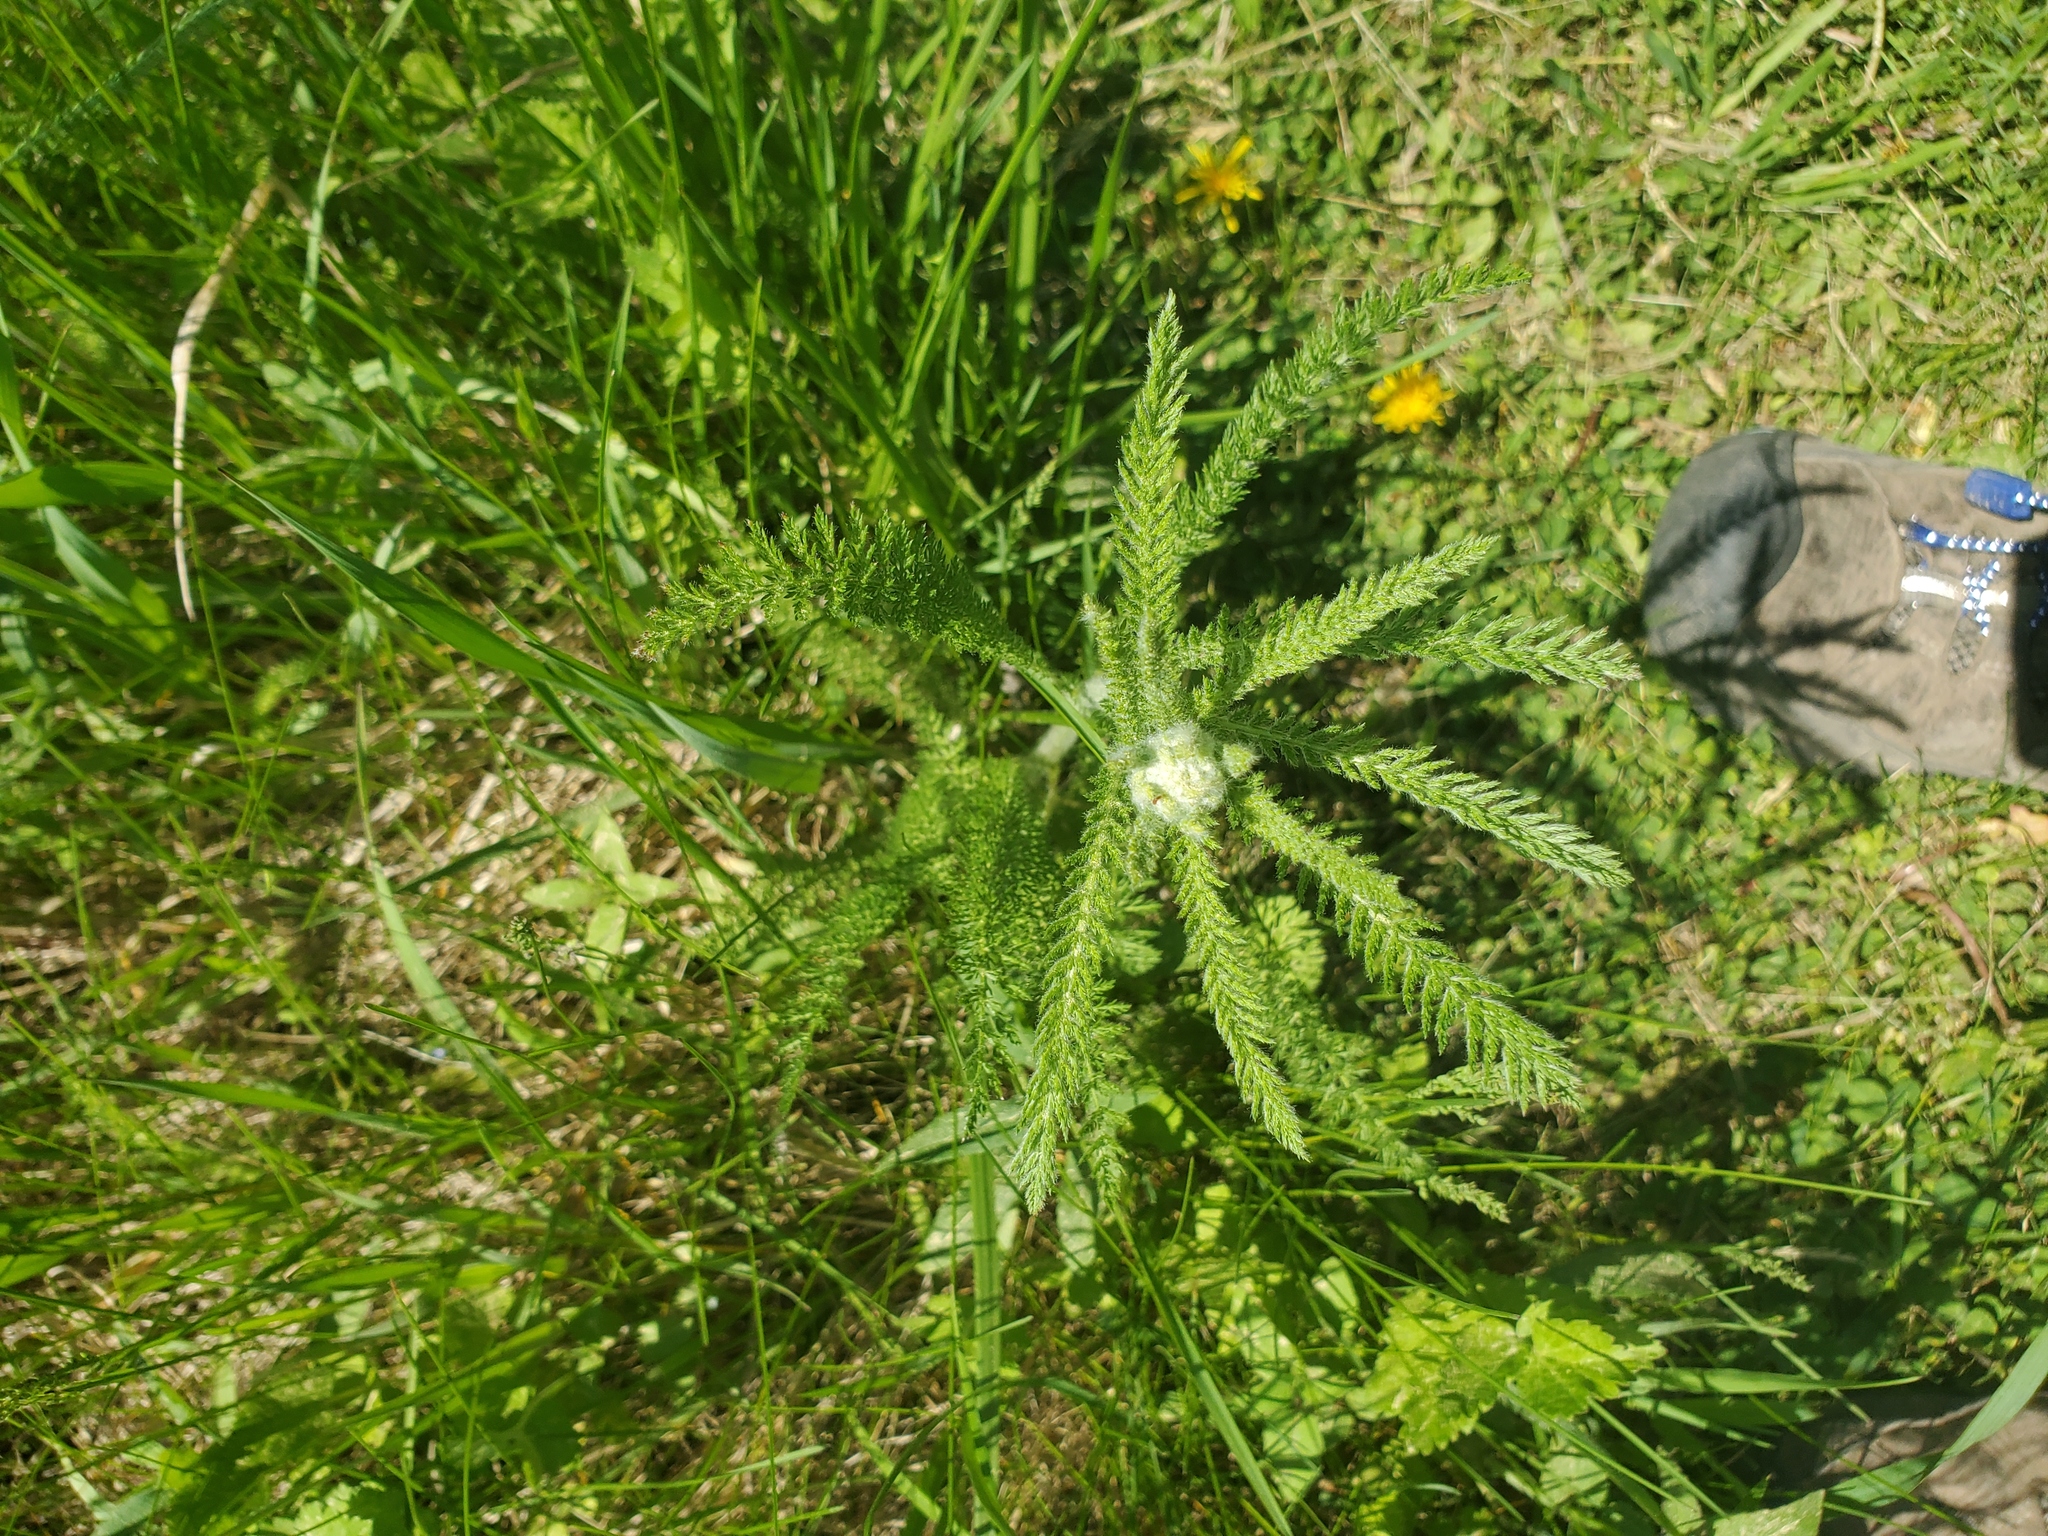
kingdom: Plantae
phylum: Tracheophyta
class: Magnoliopsida
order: Asterales
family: Asteraceae
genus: Achillea
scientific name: Achillea millefolium
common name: Yarrow
